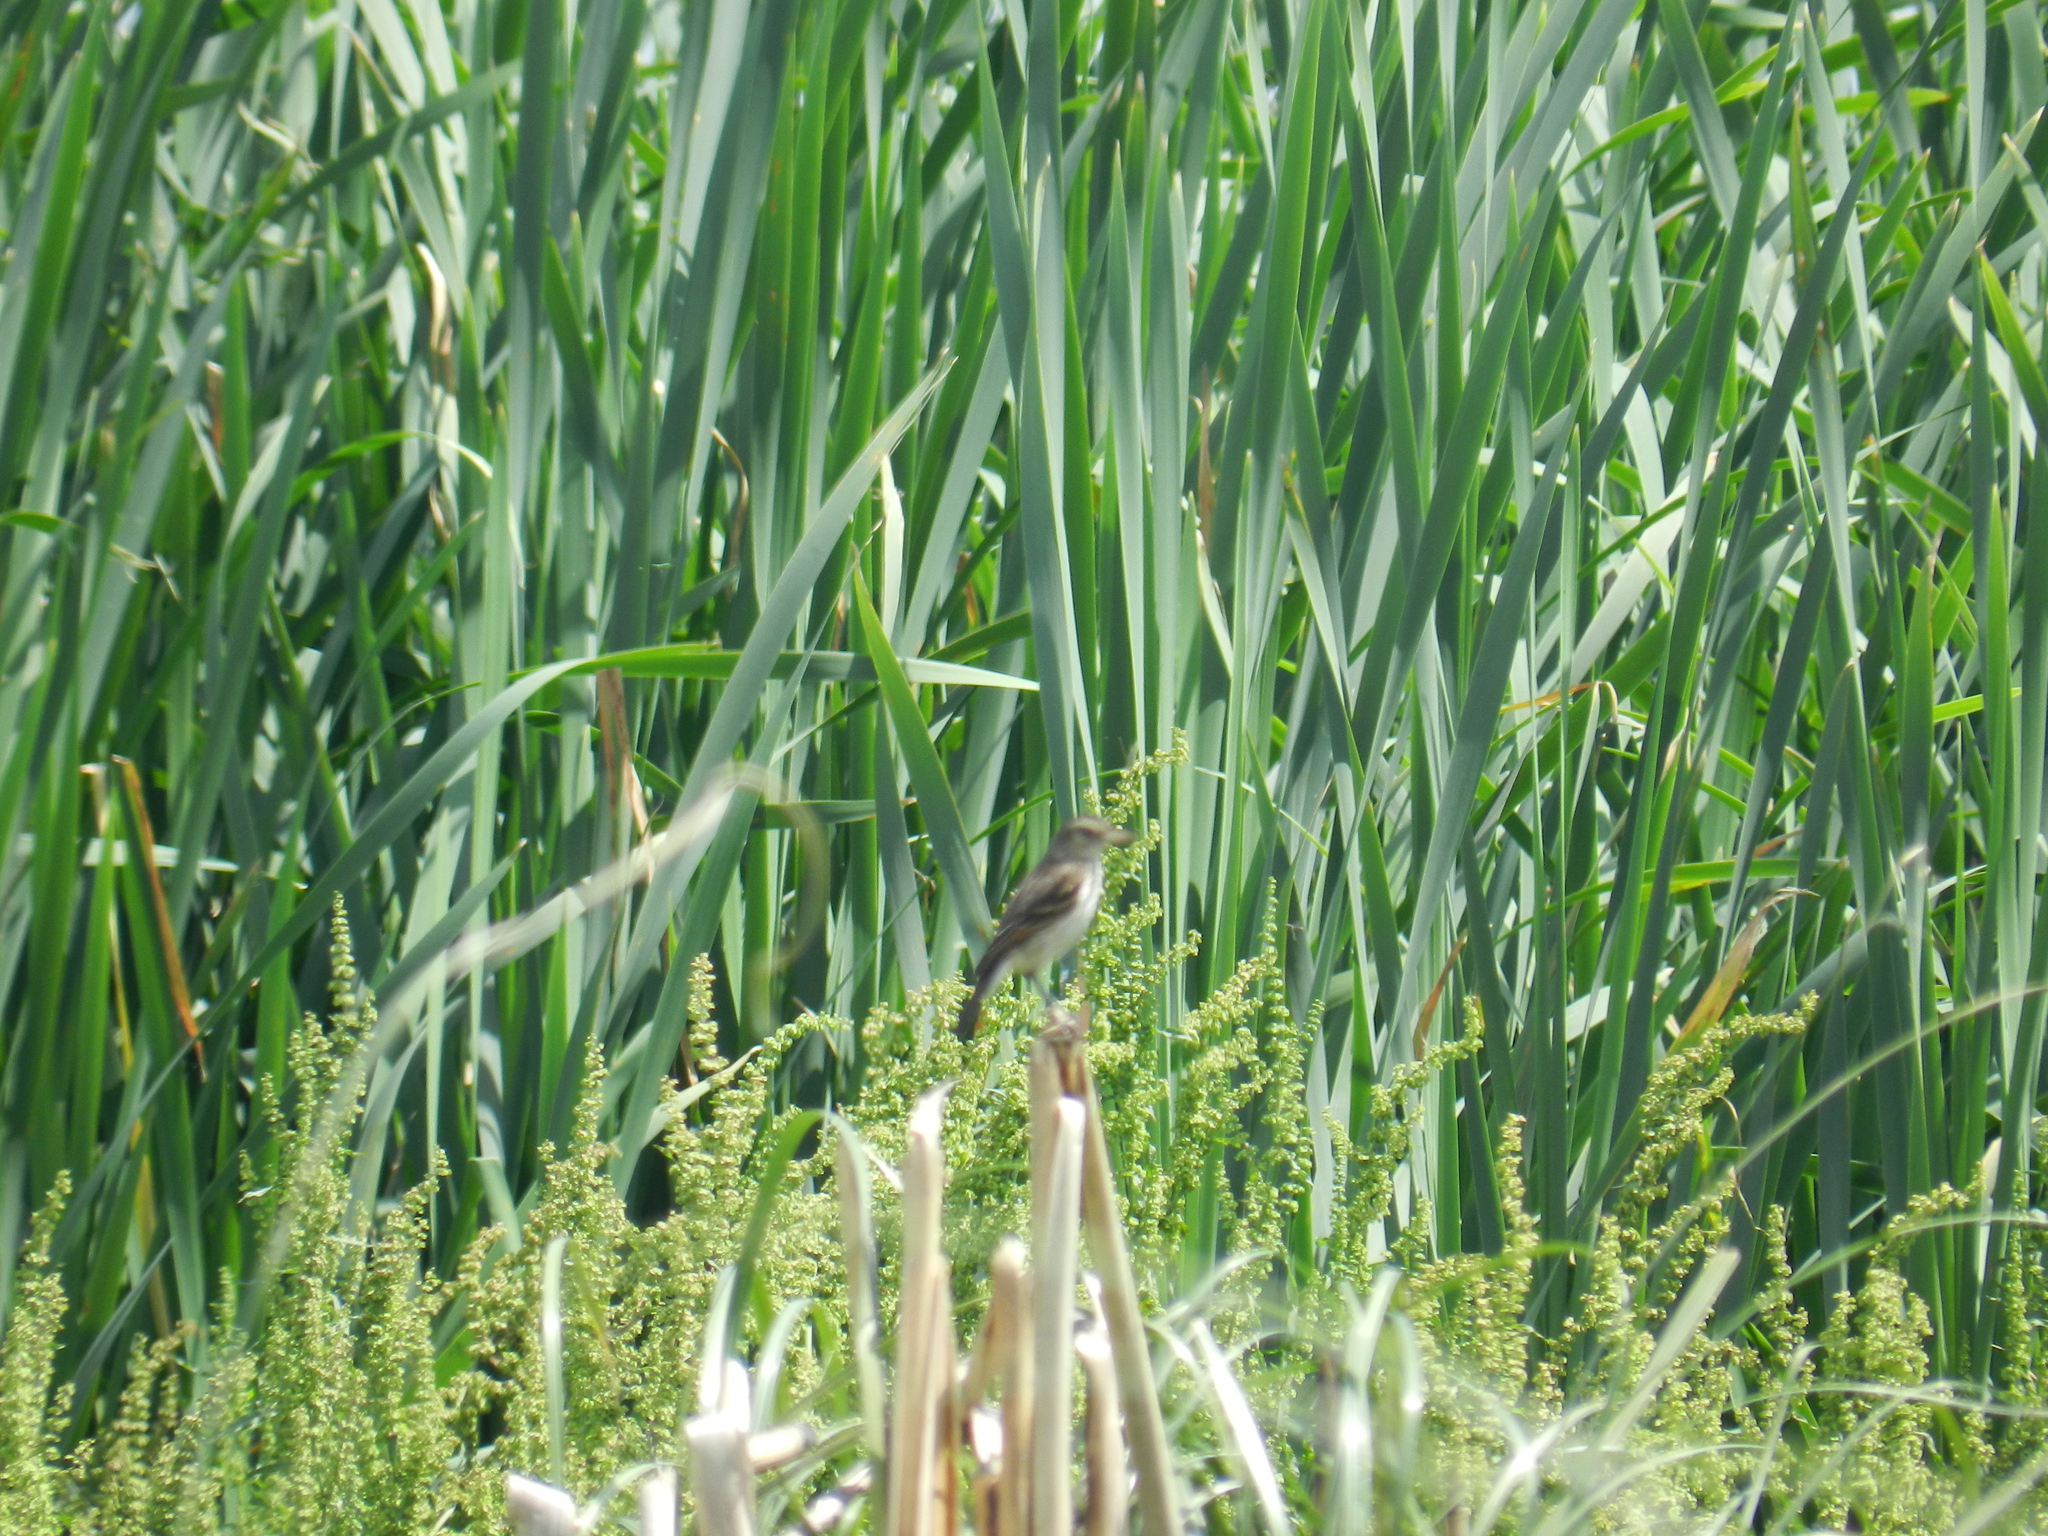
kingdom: Animalia
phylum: Chordata
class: Aves
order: Passeriformes
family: Tyrannidae
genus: Hymenops
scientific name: Hymenops perspicillatus
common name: Spectacled tyrant
